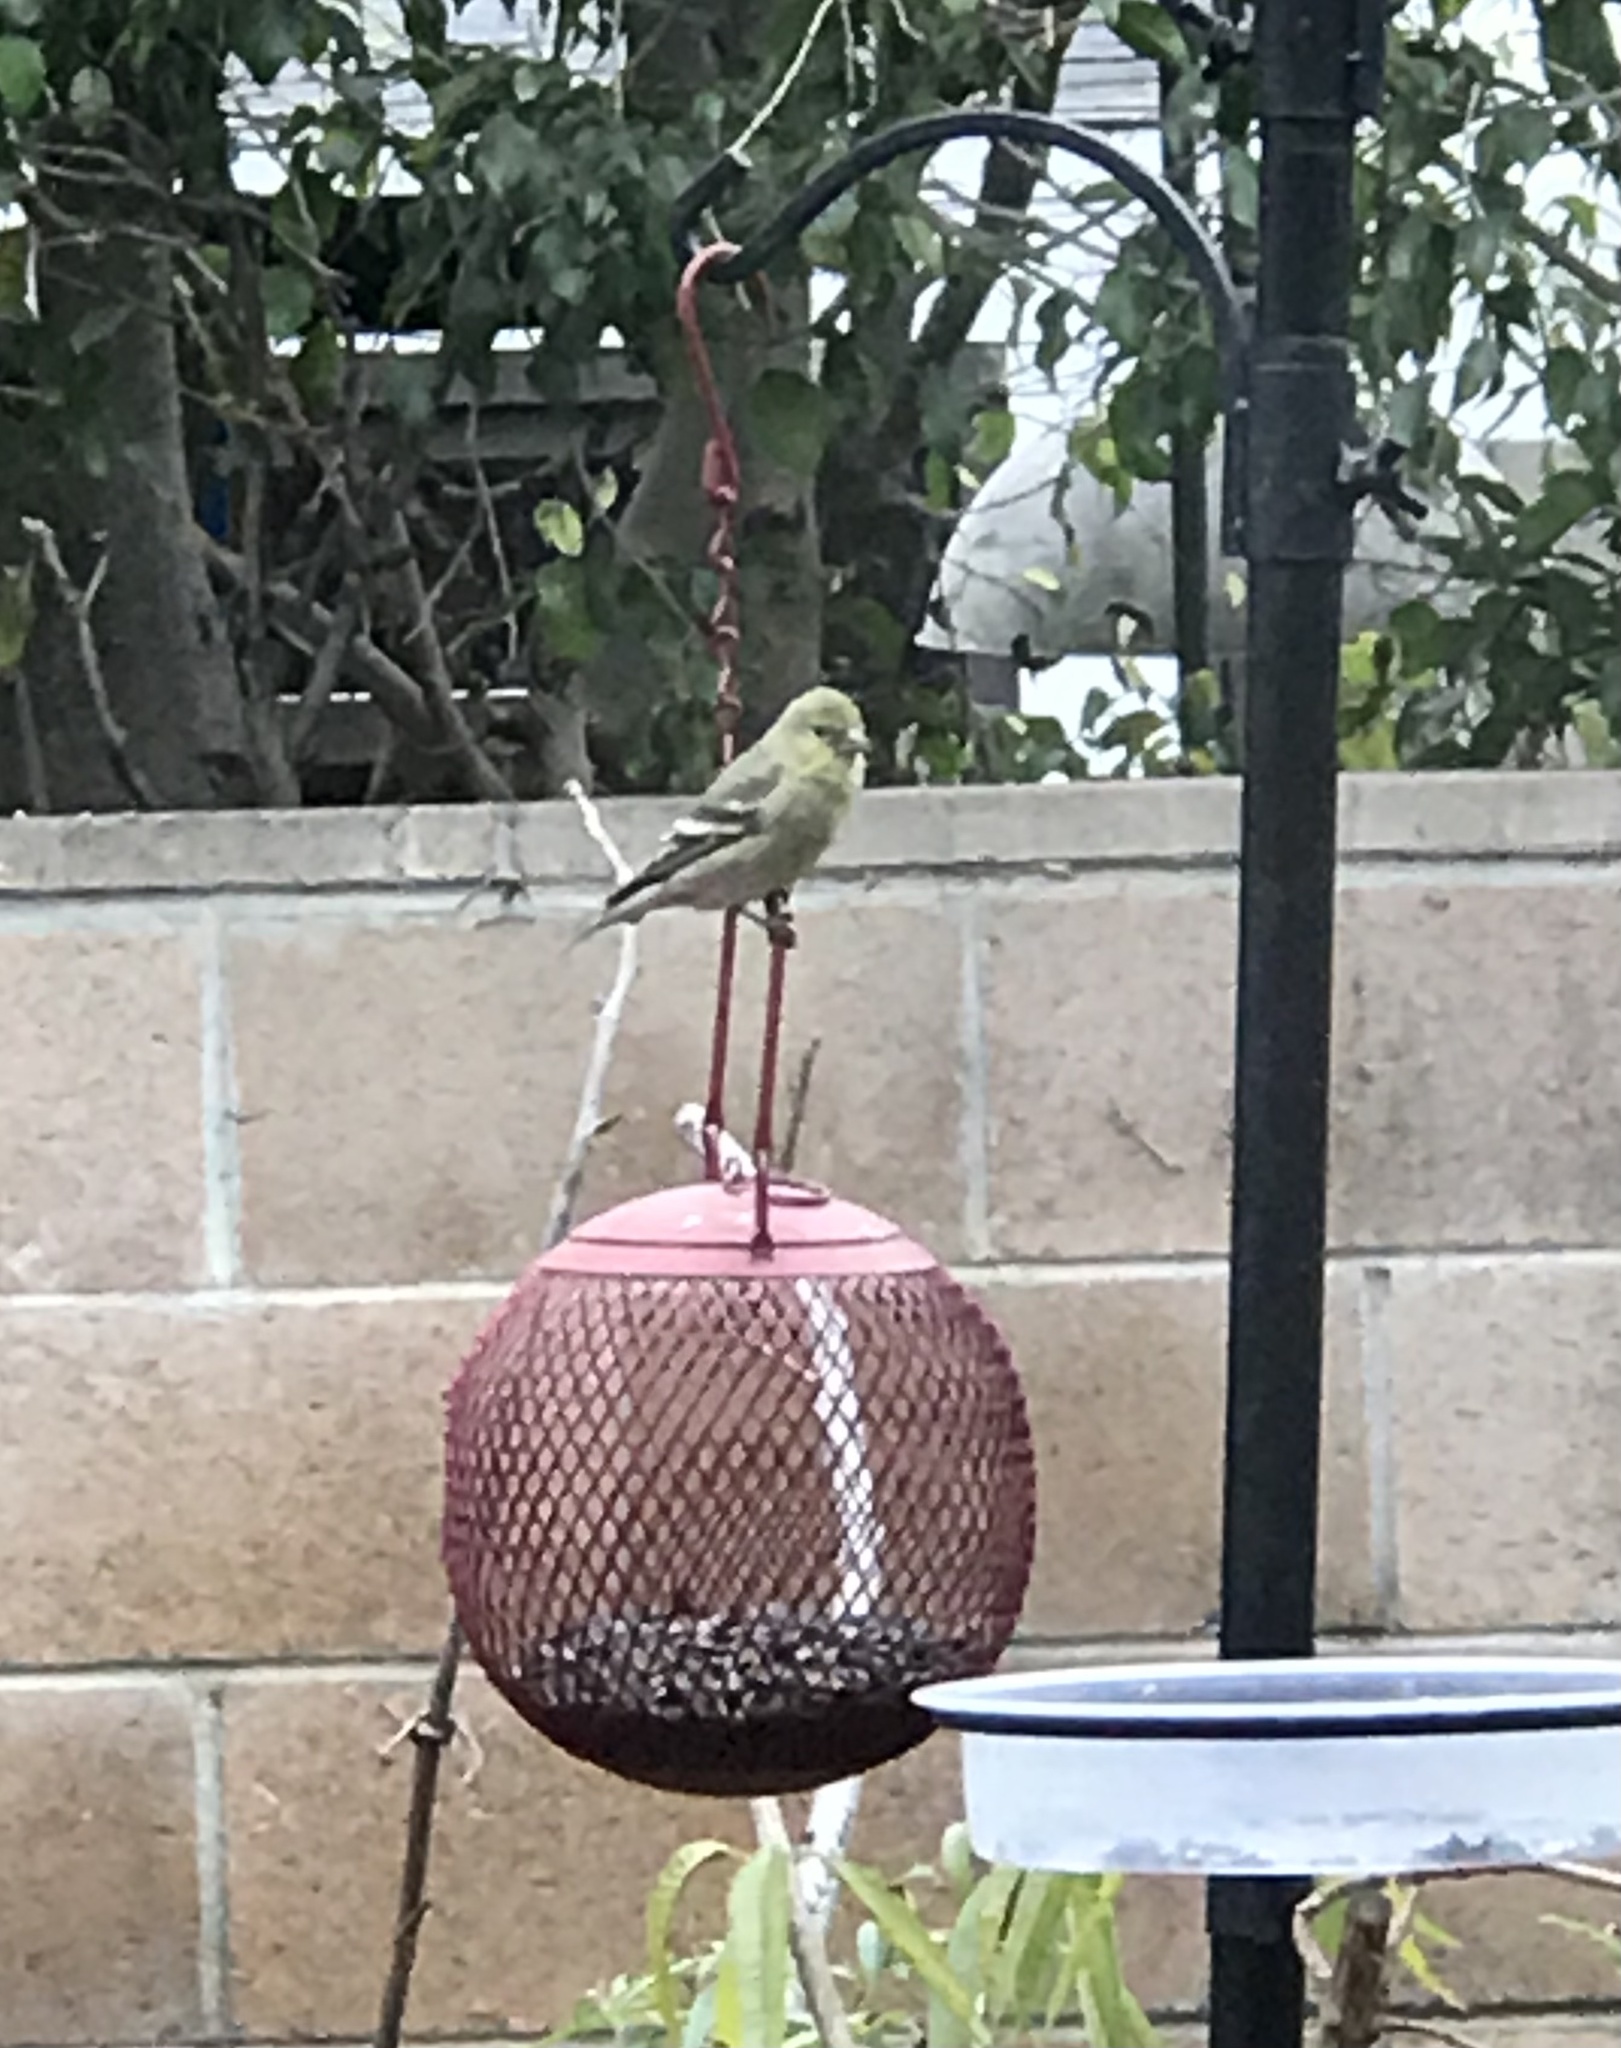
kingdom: Animalia
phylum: Chordata
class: Aves
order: Passeriformes
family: Fringillidae
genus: Spinus
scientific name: Spinus psaltria
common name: Lesser goldfinch
